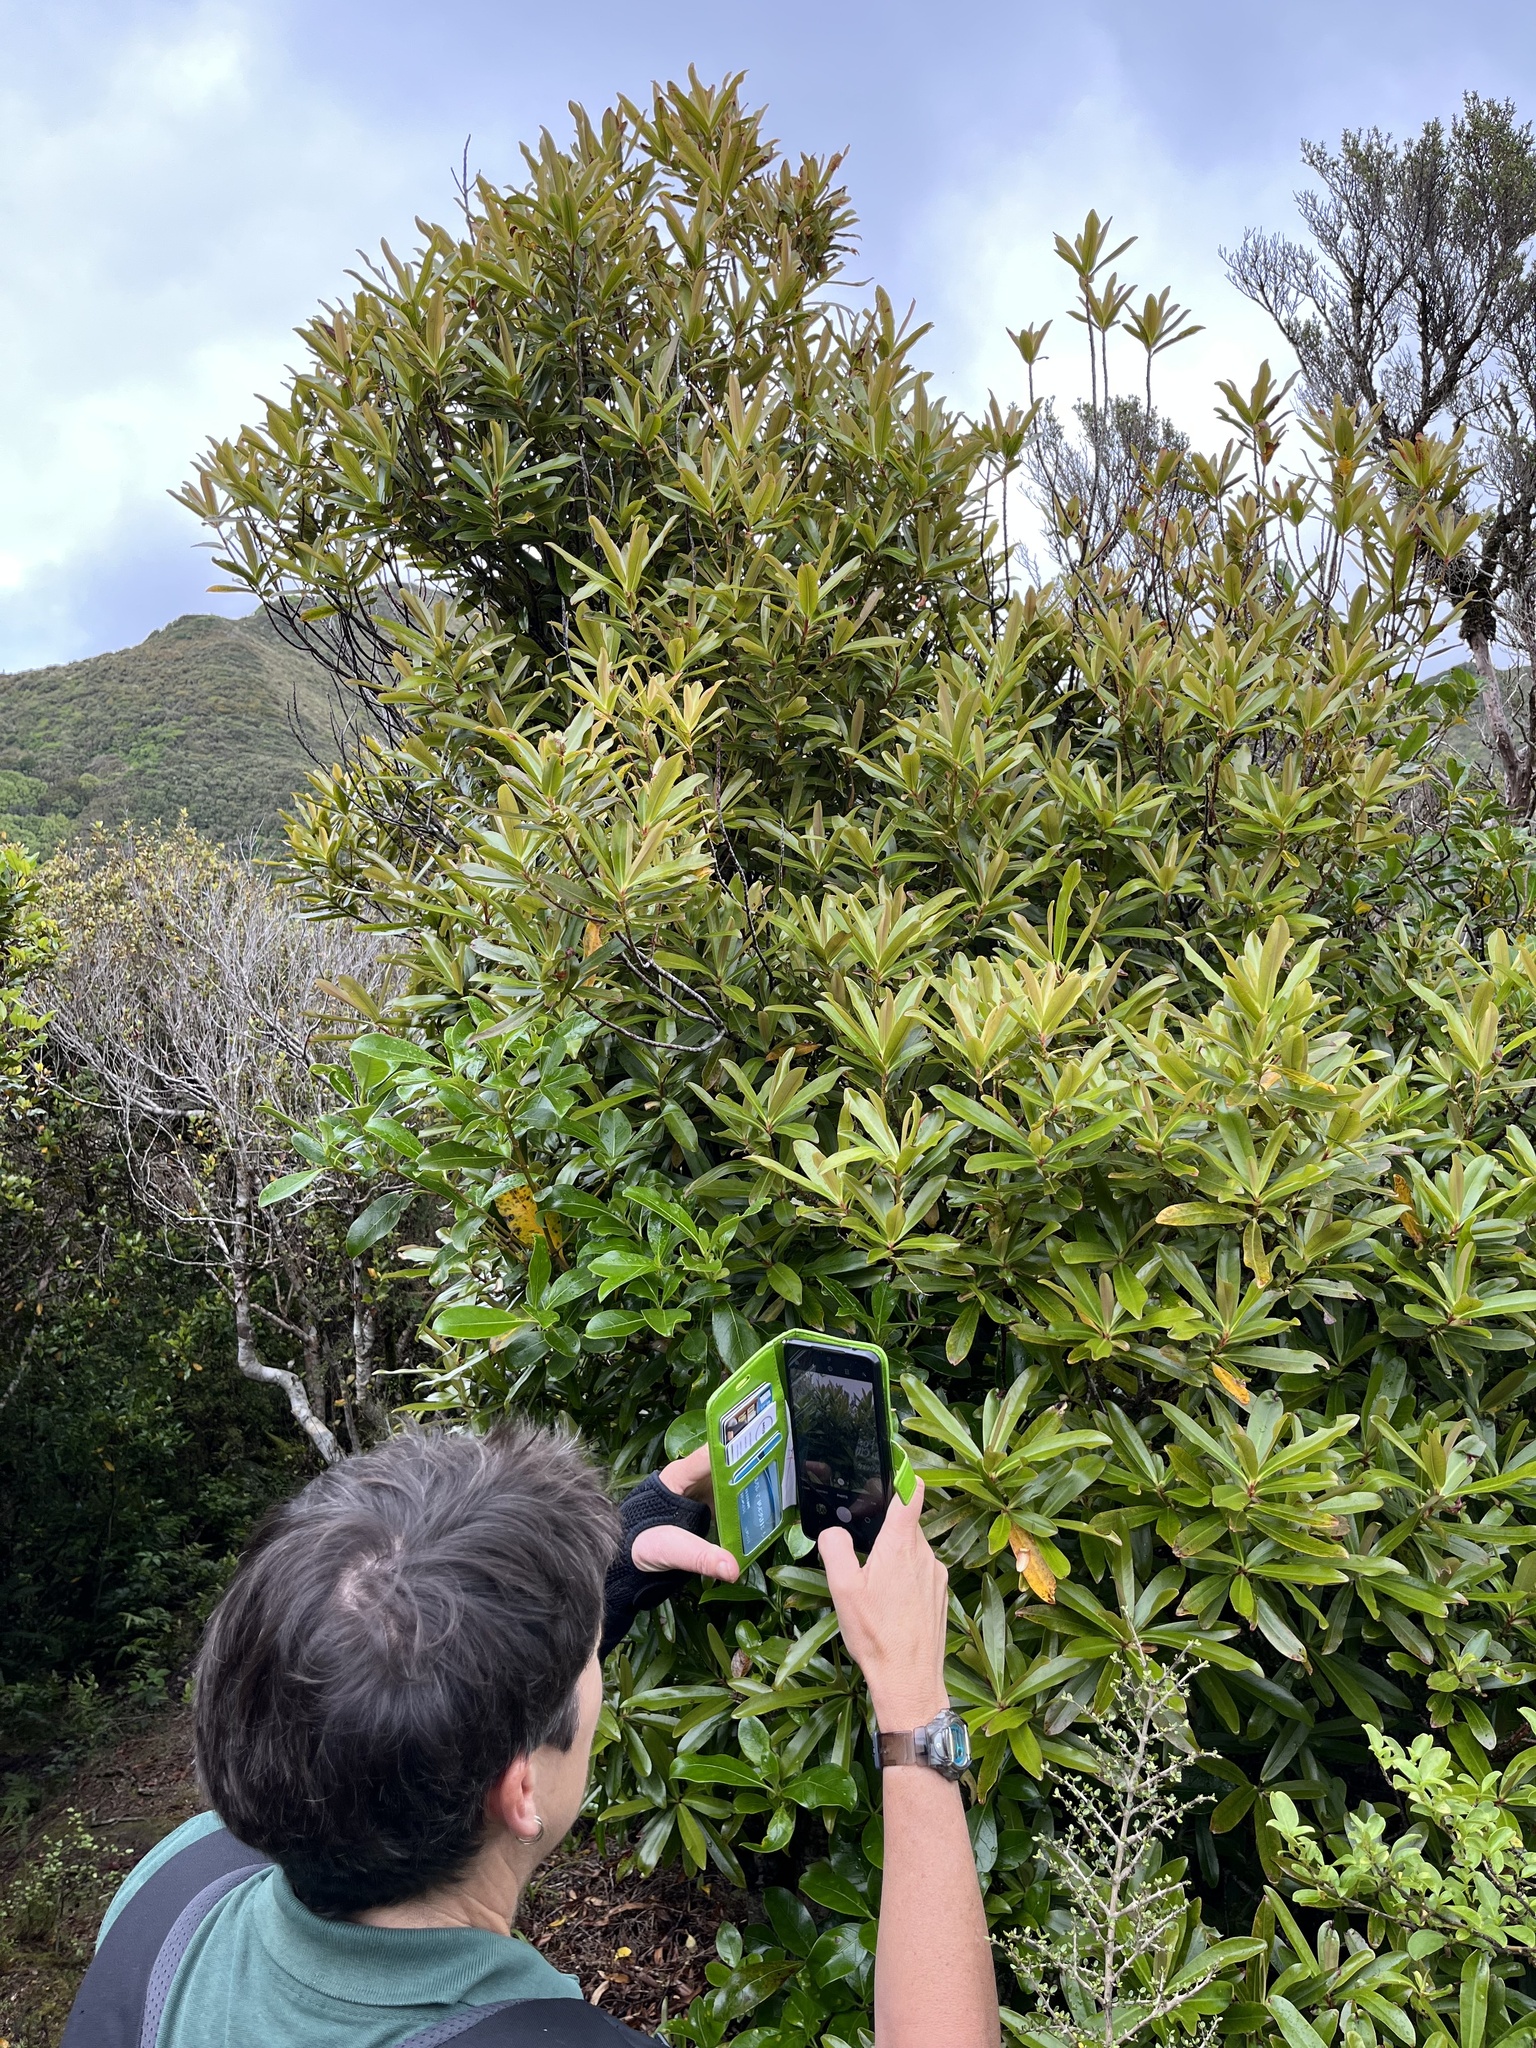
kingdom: Plantae
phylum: Tracheophyta
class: Magnoliopsida
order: Ericales
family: Primulaceae
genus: Myrsine
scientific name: Myrsine salicina
